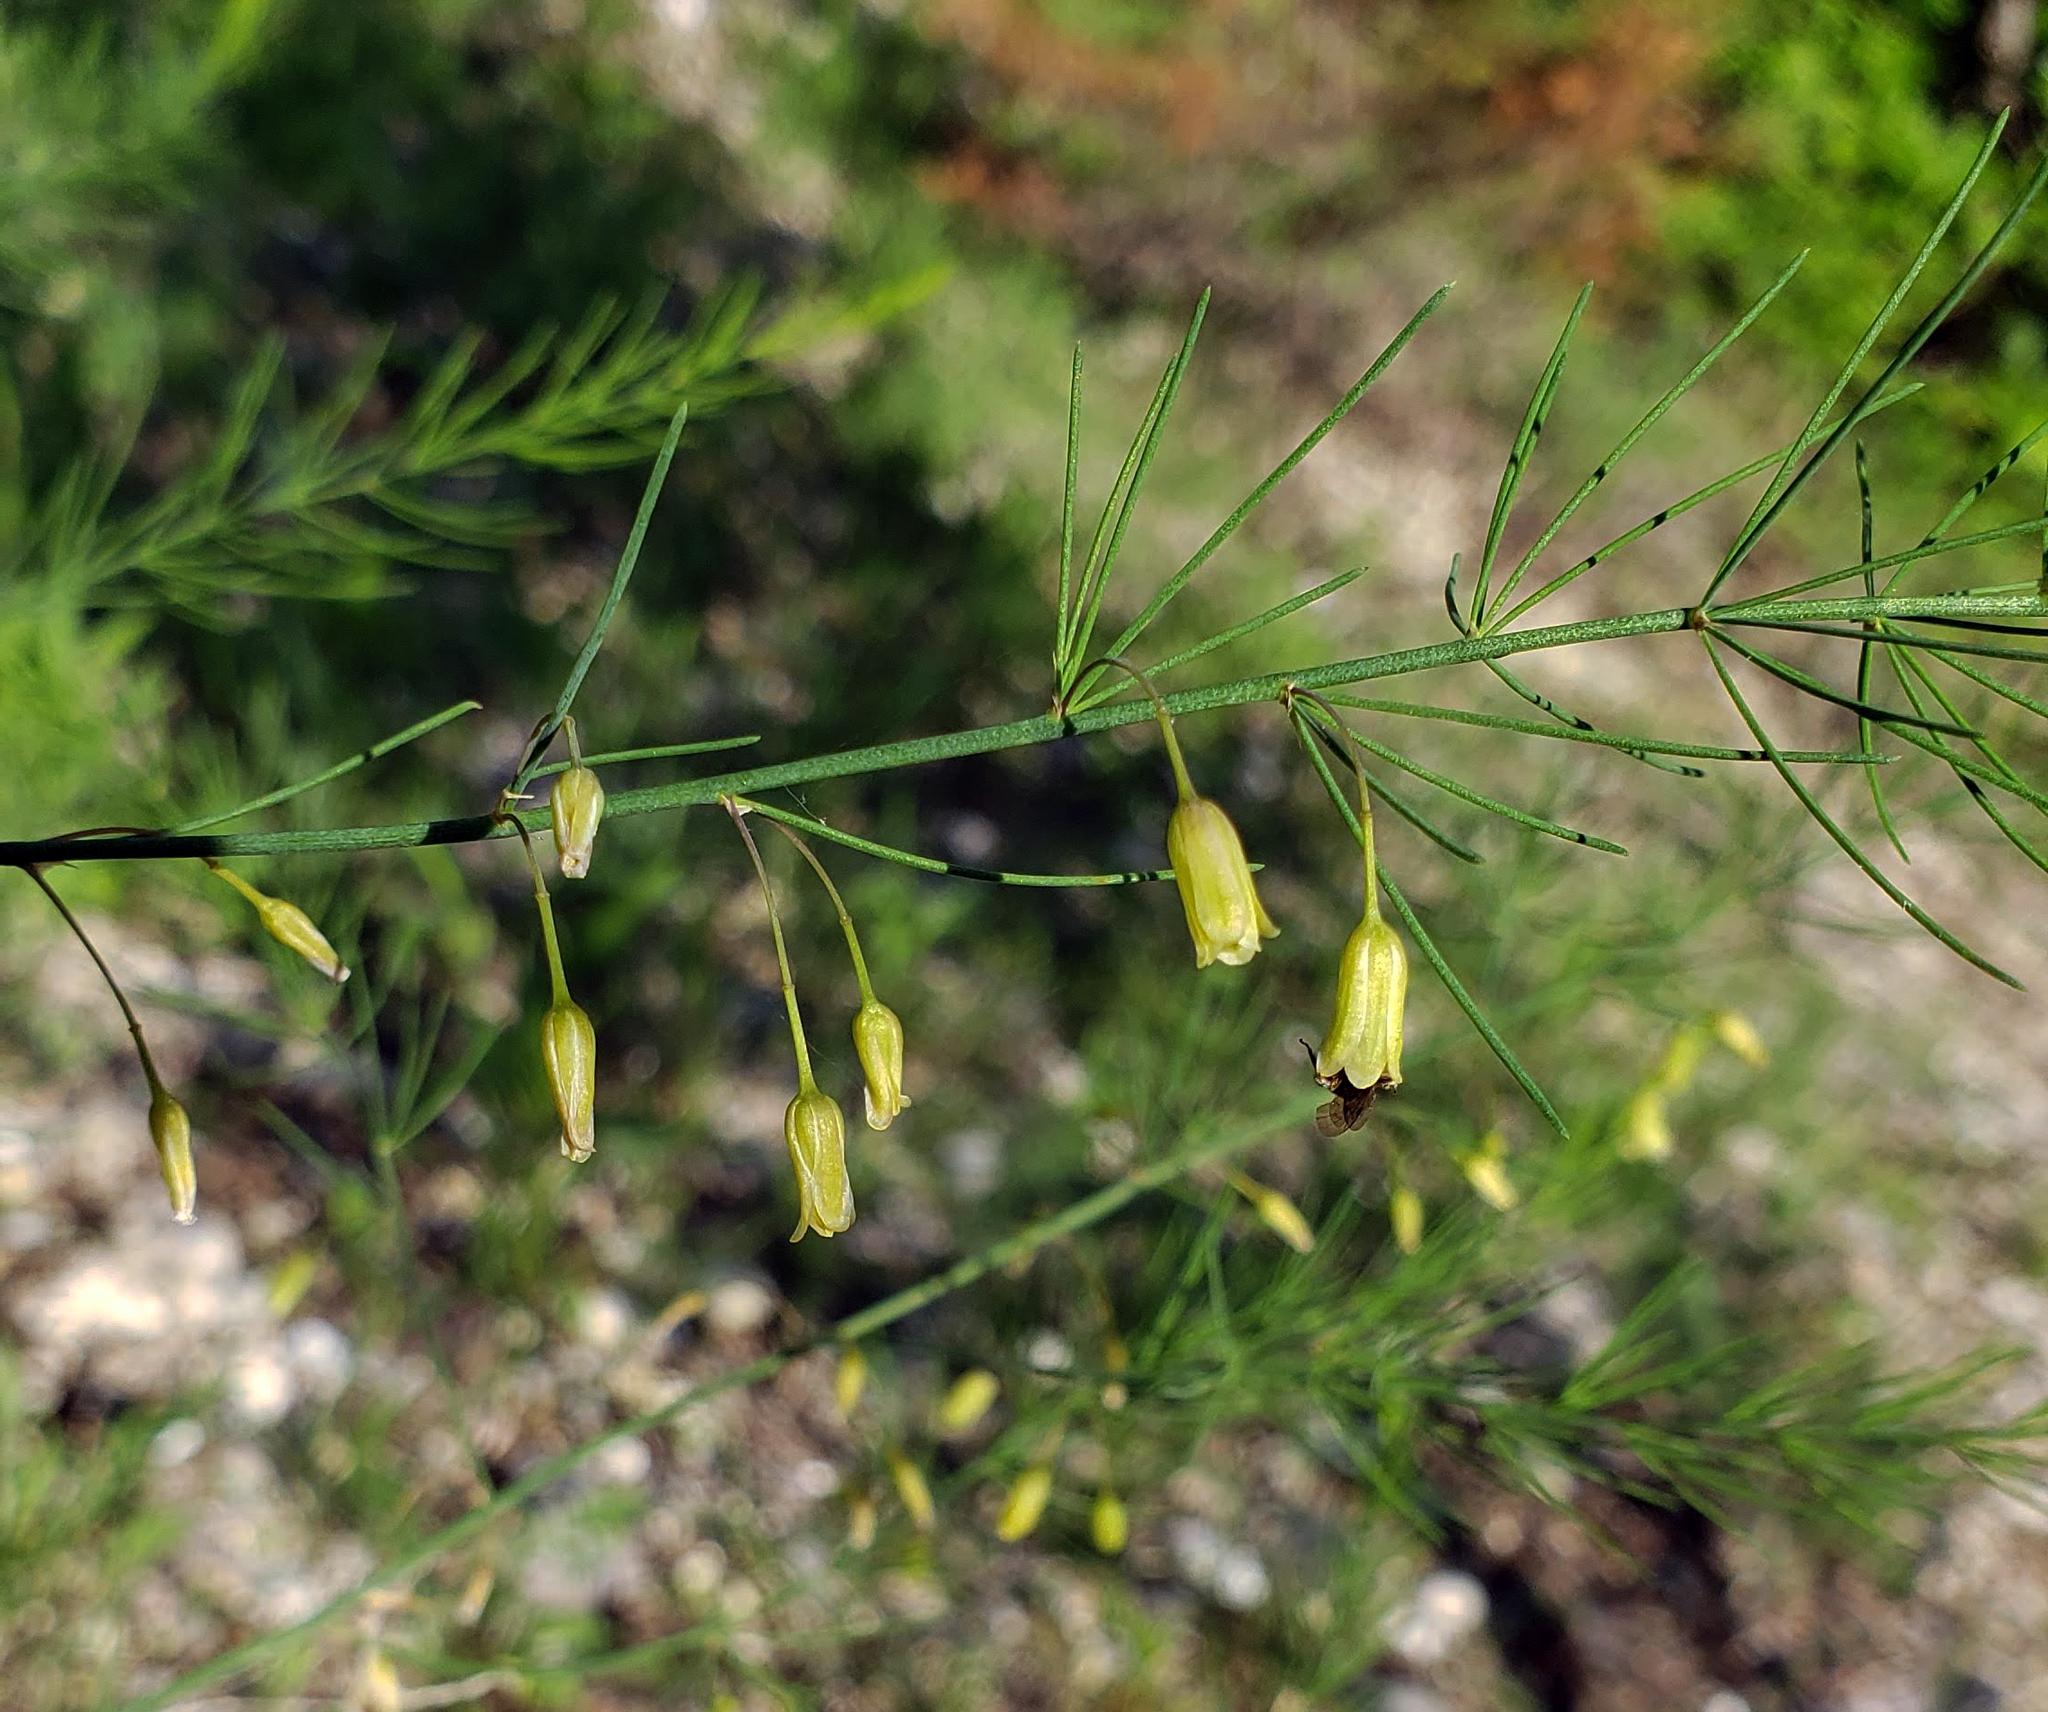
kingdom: Plantae
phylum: Tracheophyta
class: Liliopsida
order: Asparagales
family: Asparagaceae
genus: Asparagus
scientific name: Asparagus officinalis
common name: Garden asparagus
